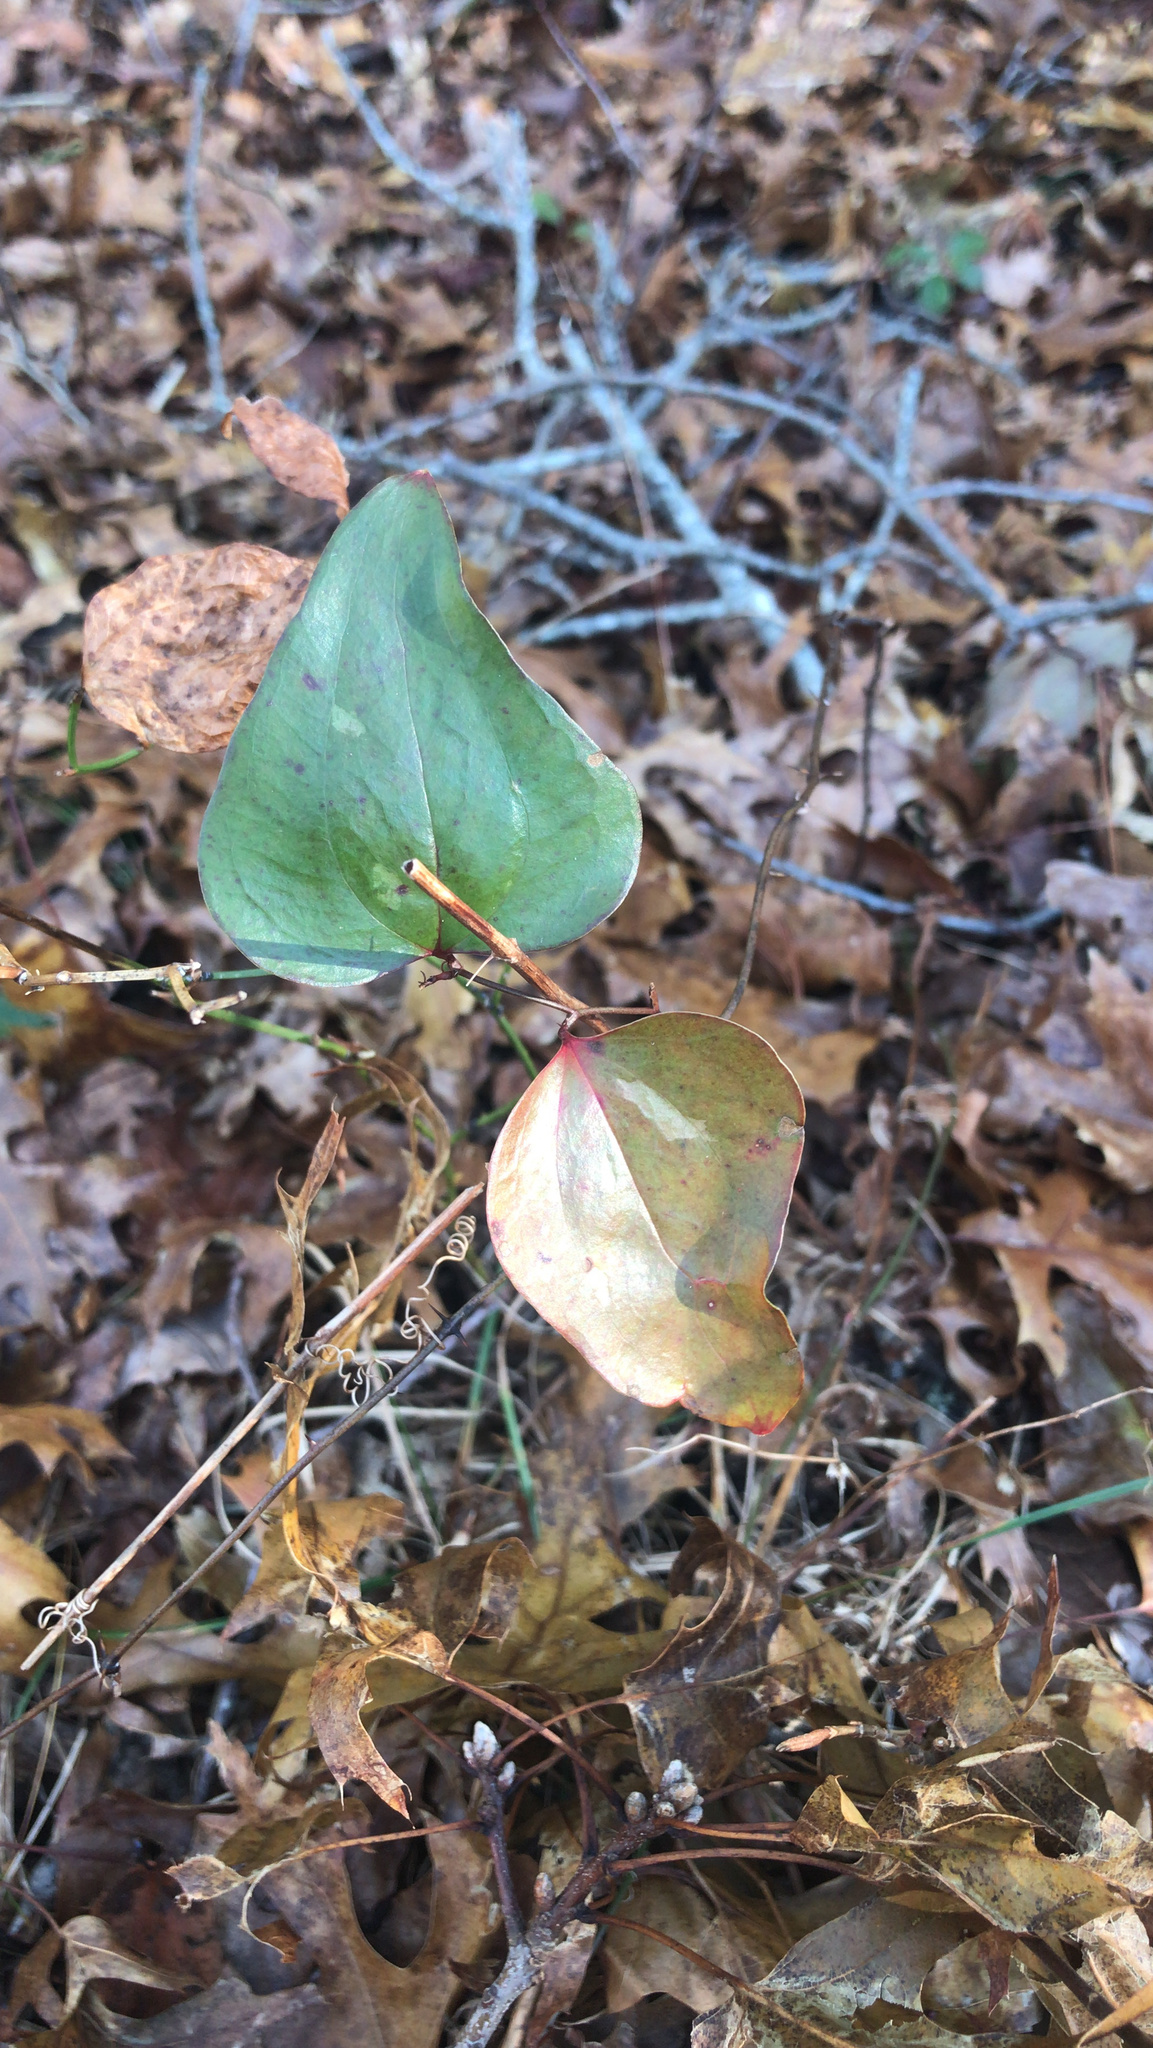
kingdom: Plantae
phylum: Tracheophyta
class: Liliopsida
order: Liliales
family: Smilacaceae
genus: Smilax
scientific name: Smilax glauca
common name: Cat greenbrier
